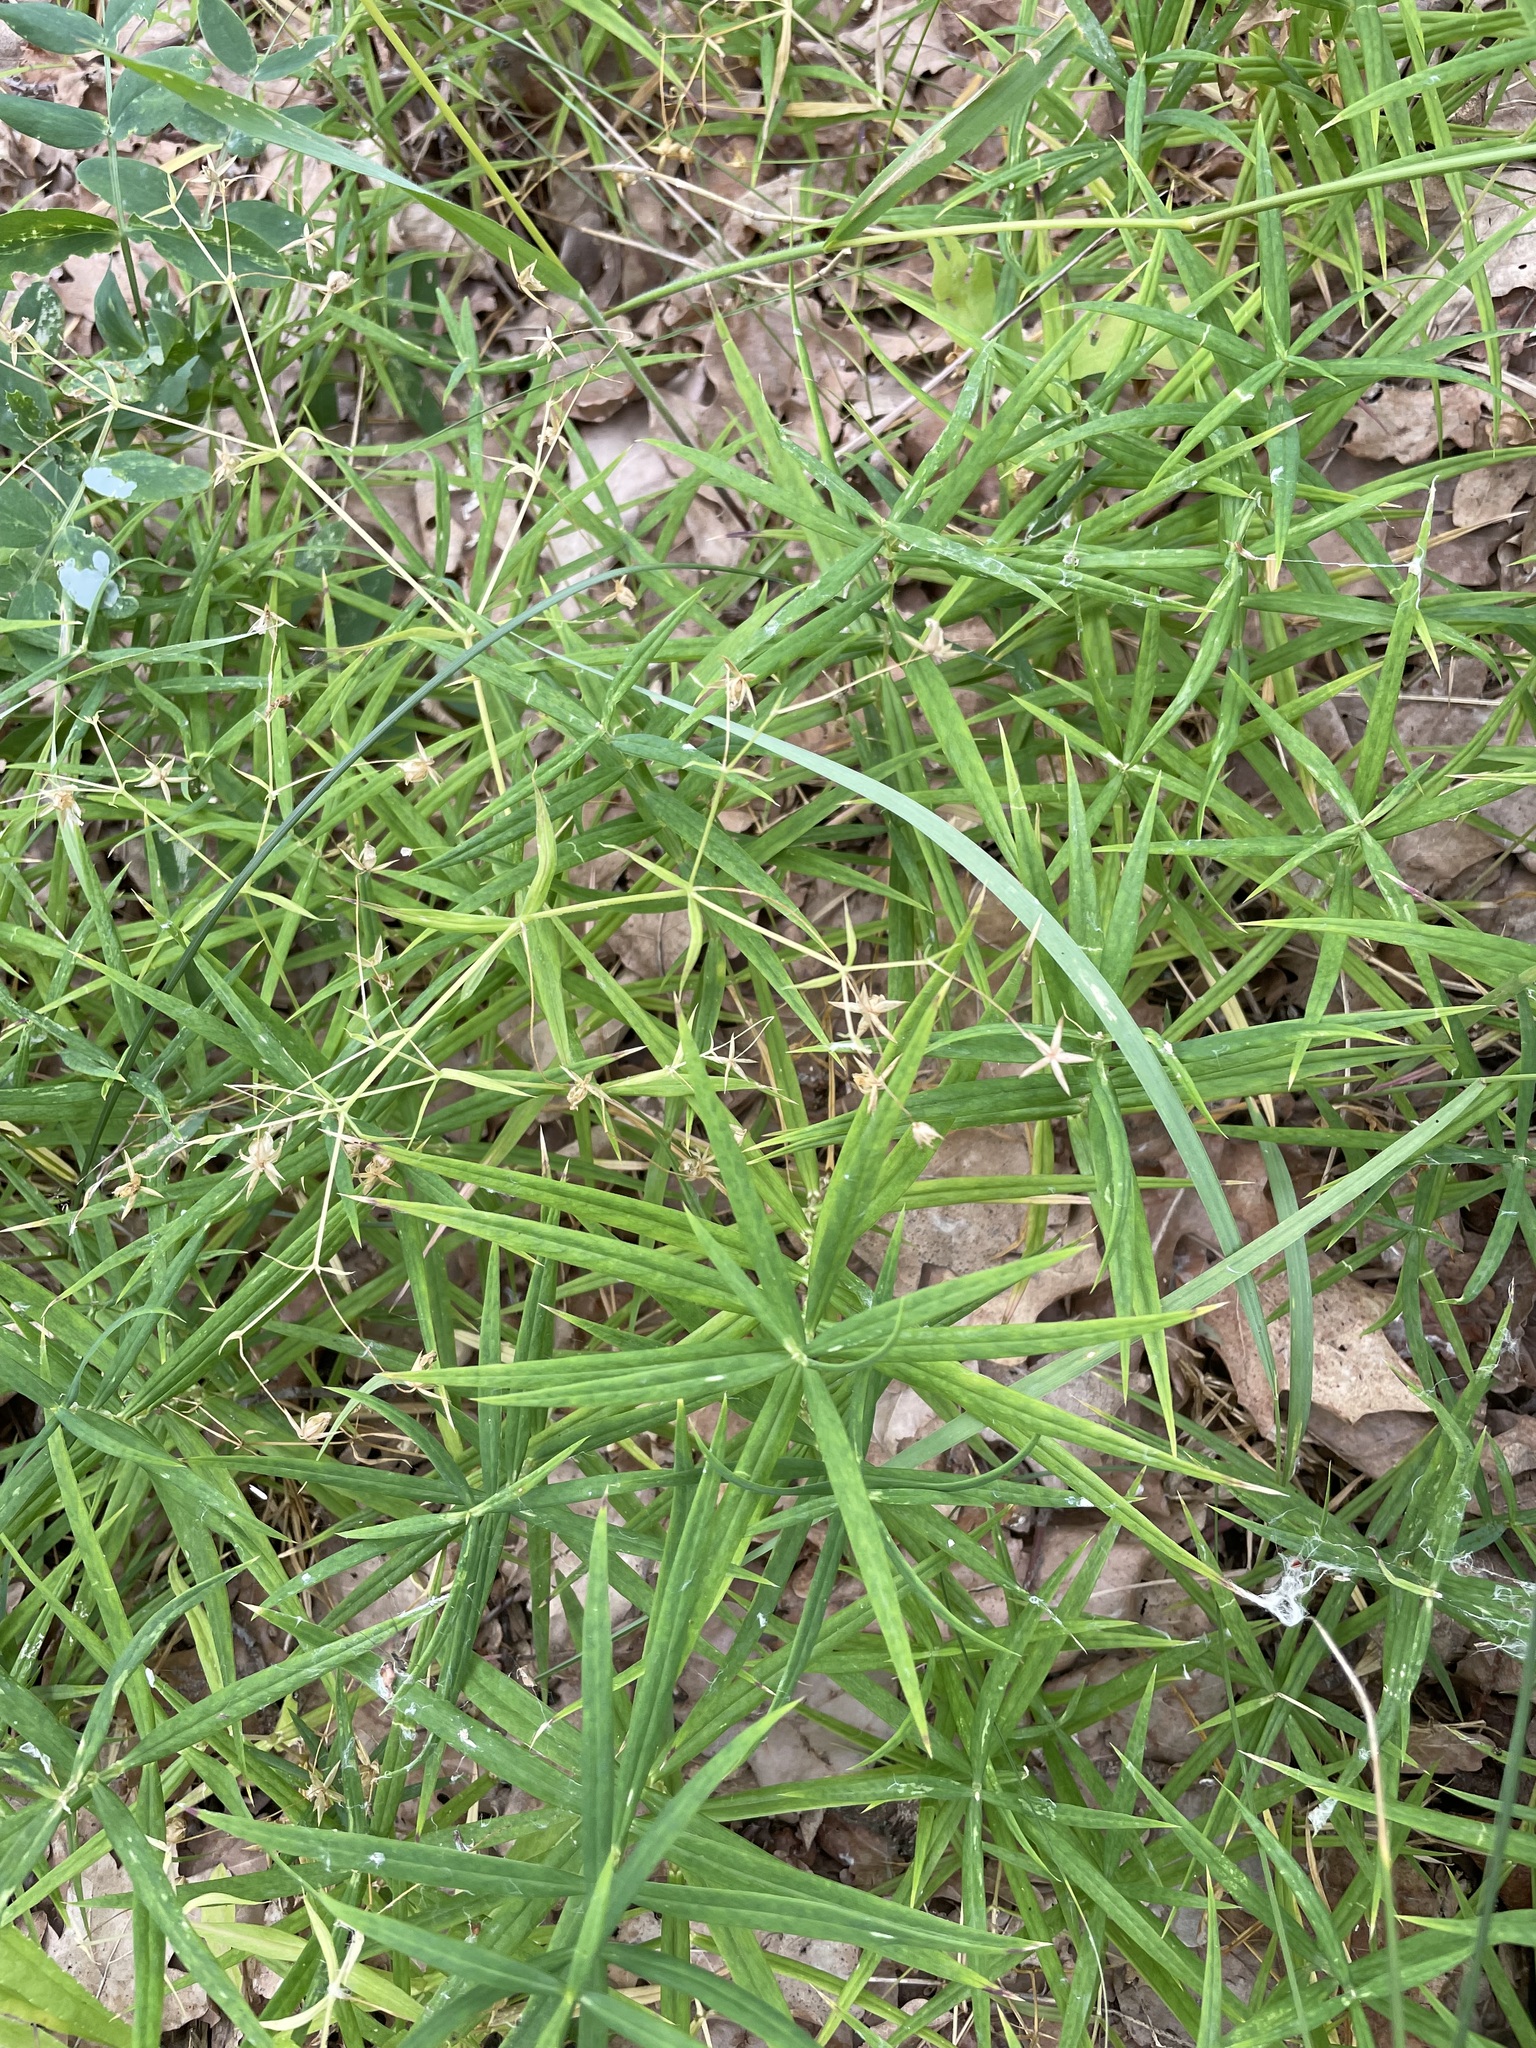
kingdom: Plantae
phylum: Tracheophyta
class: Magnoliopsida
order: Caryophyllales
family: Caryophyllaceae
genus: Rabelera
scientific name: Rabelera holostea
